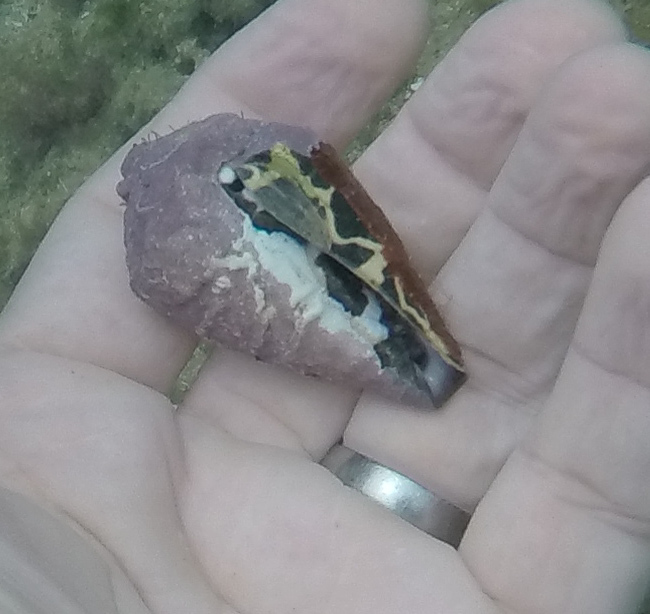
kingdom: Animalia
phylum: Mollusca
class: Gastropoda
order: Neogastropoda
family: Conidae
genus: Conus
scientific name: Conus ebraeus
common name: Hebrew cone
